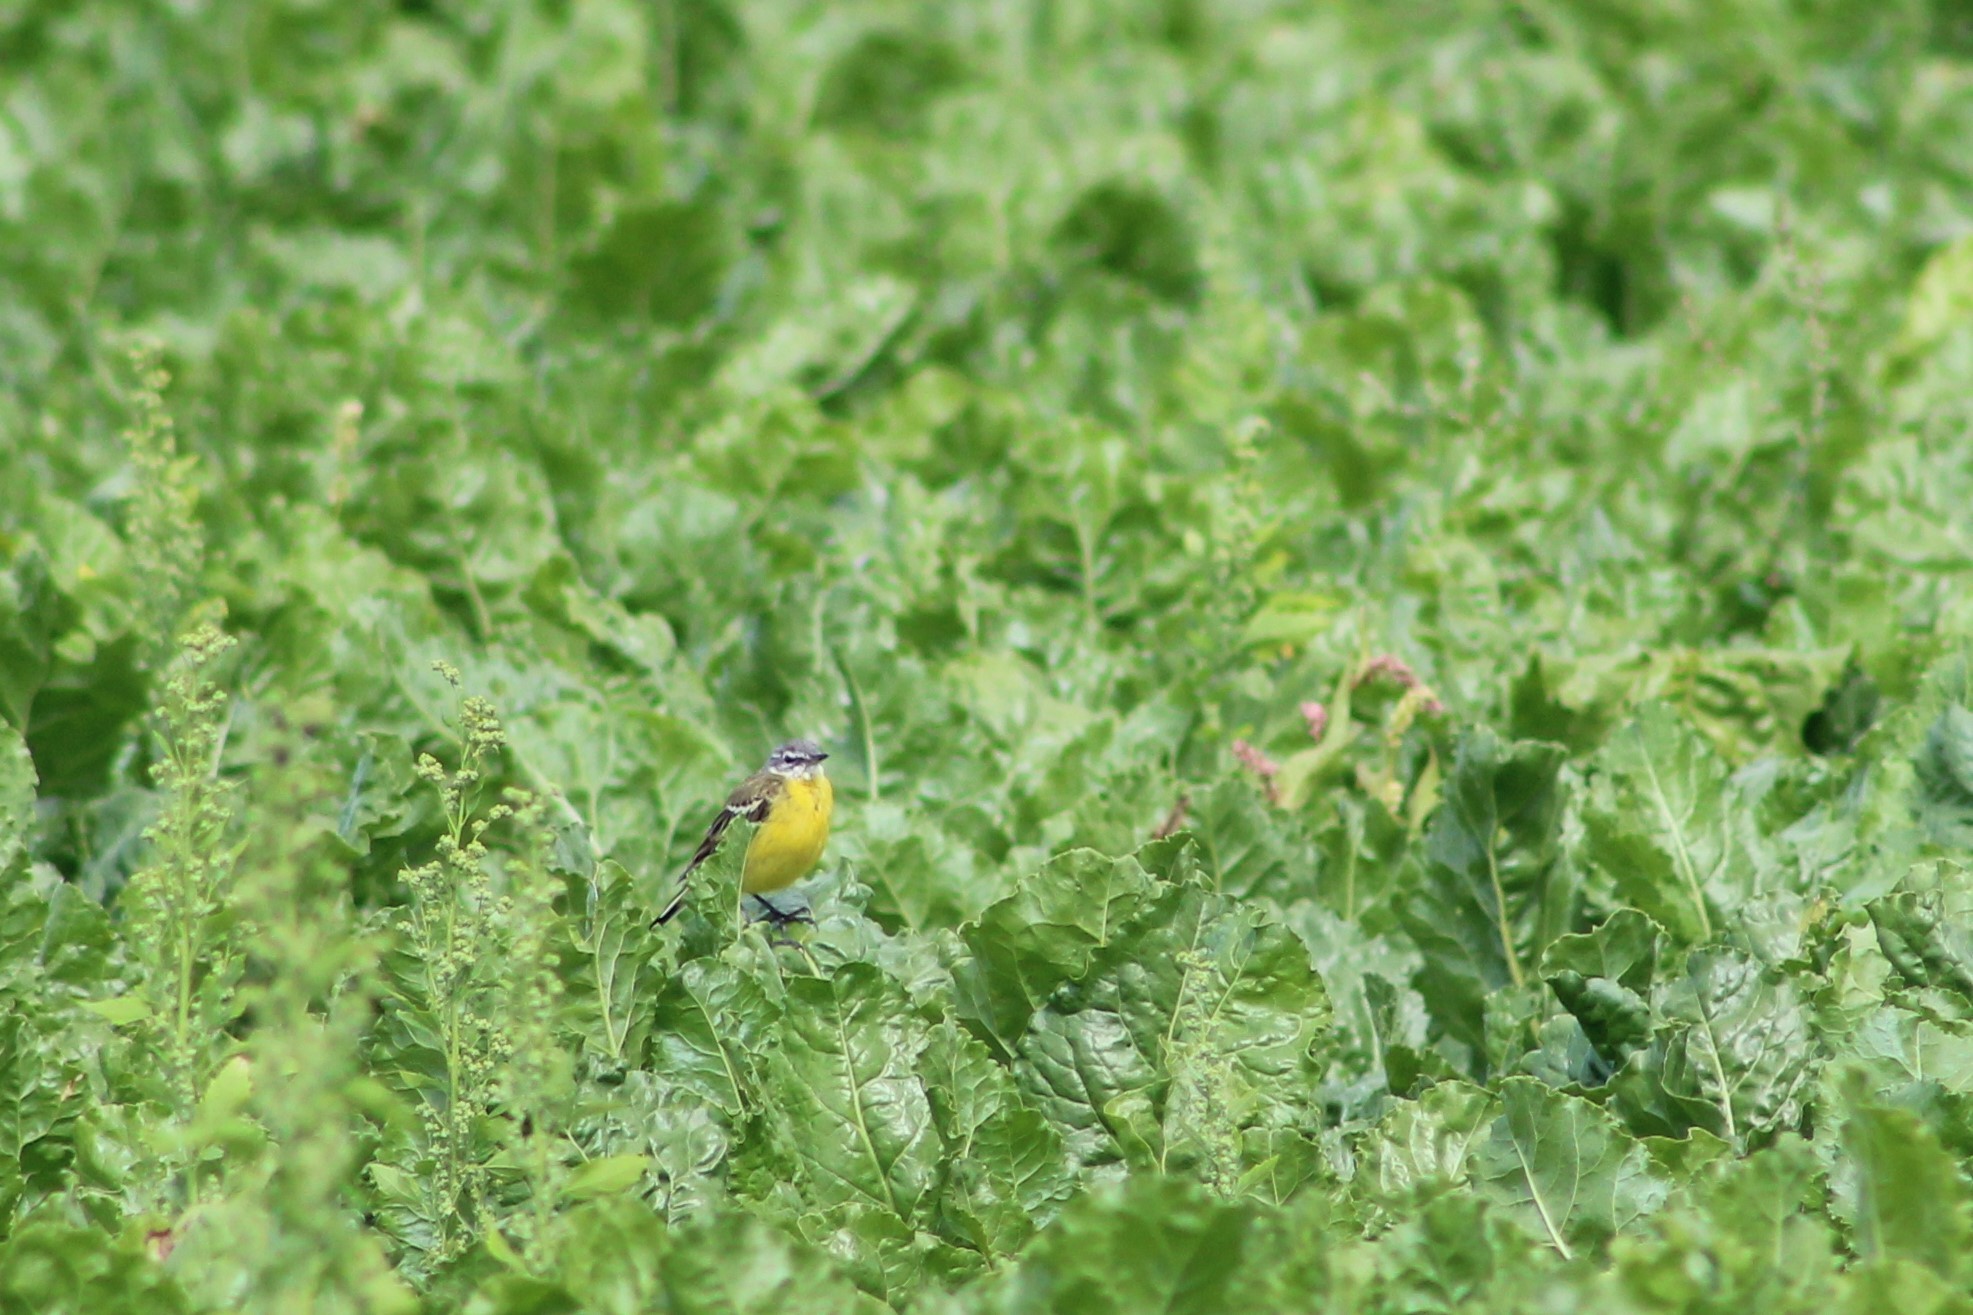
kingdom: Animalia
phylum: Chordata
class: Aves
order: Passeriformes
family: Motacillidae
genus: Motacilla
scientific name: Motacilla flava
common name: Western yellow wagtail
